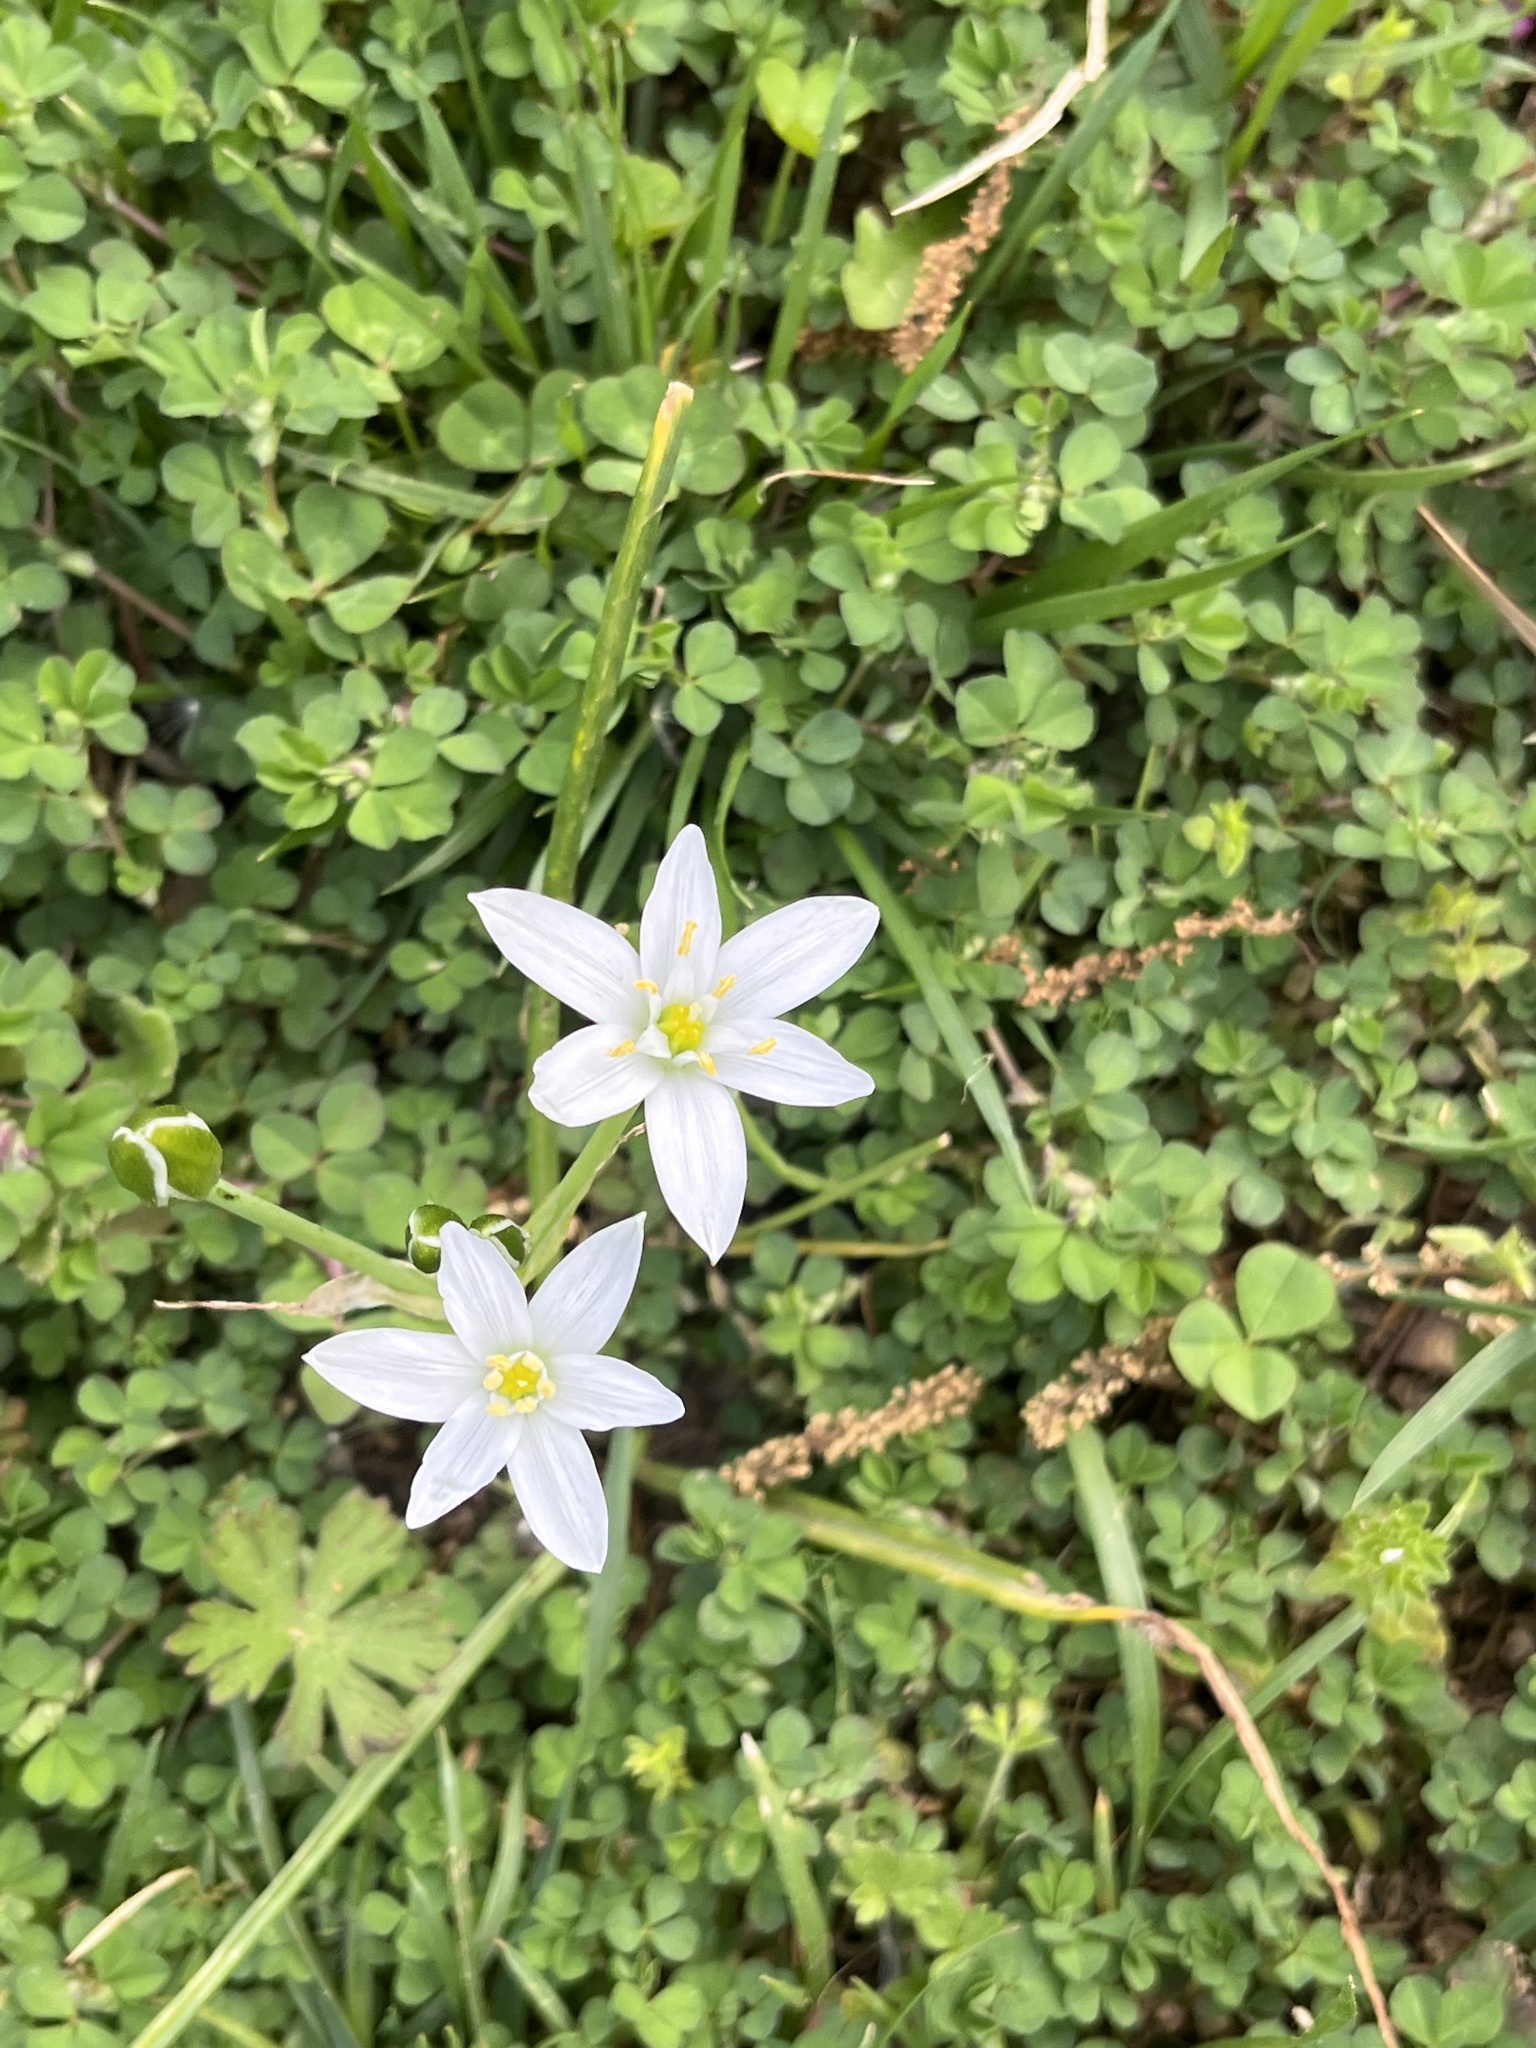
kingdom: Plantae
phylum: Tracheophyta
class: Liliopsida
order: Asparagales
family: Asparagaceae
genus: Ornithogalum
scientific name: Ornithogalum umbellatum
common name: Garden star-of-bethlehem
